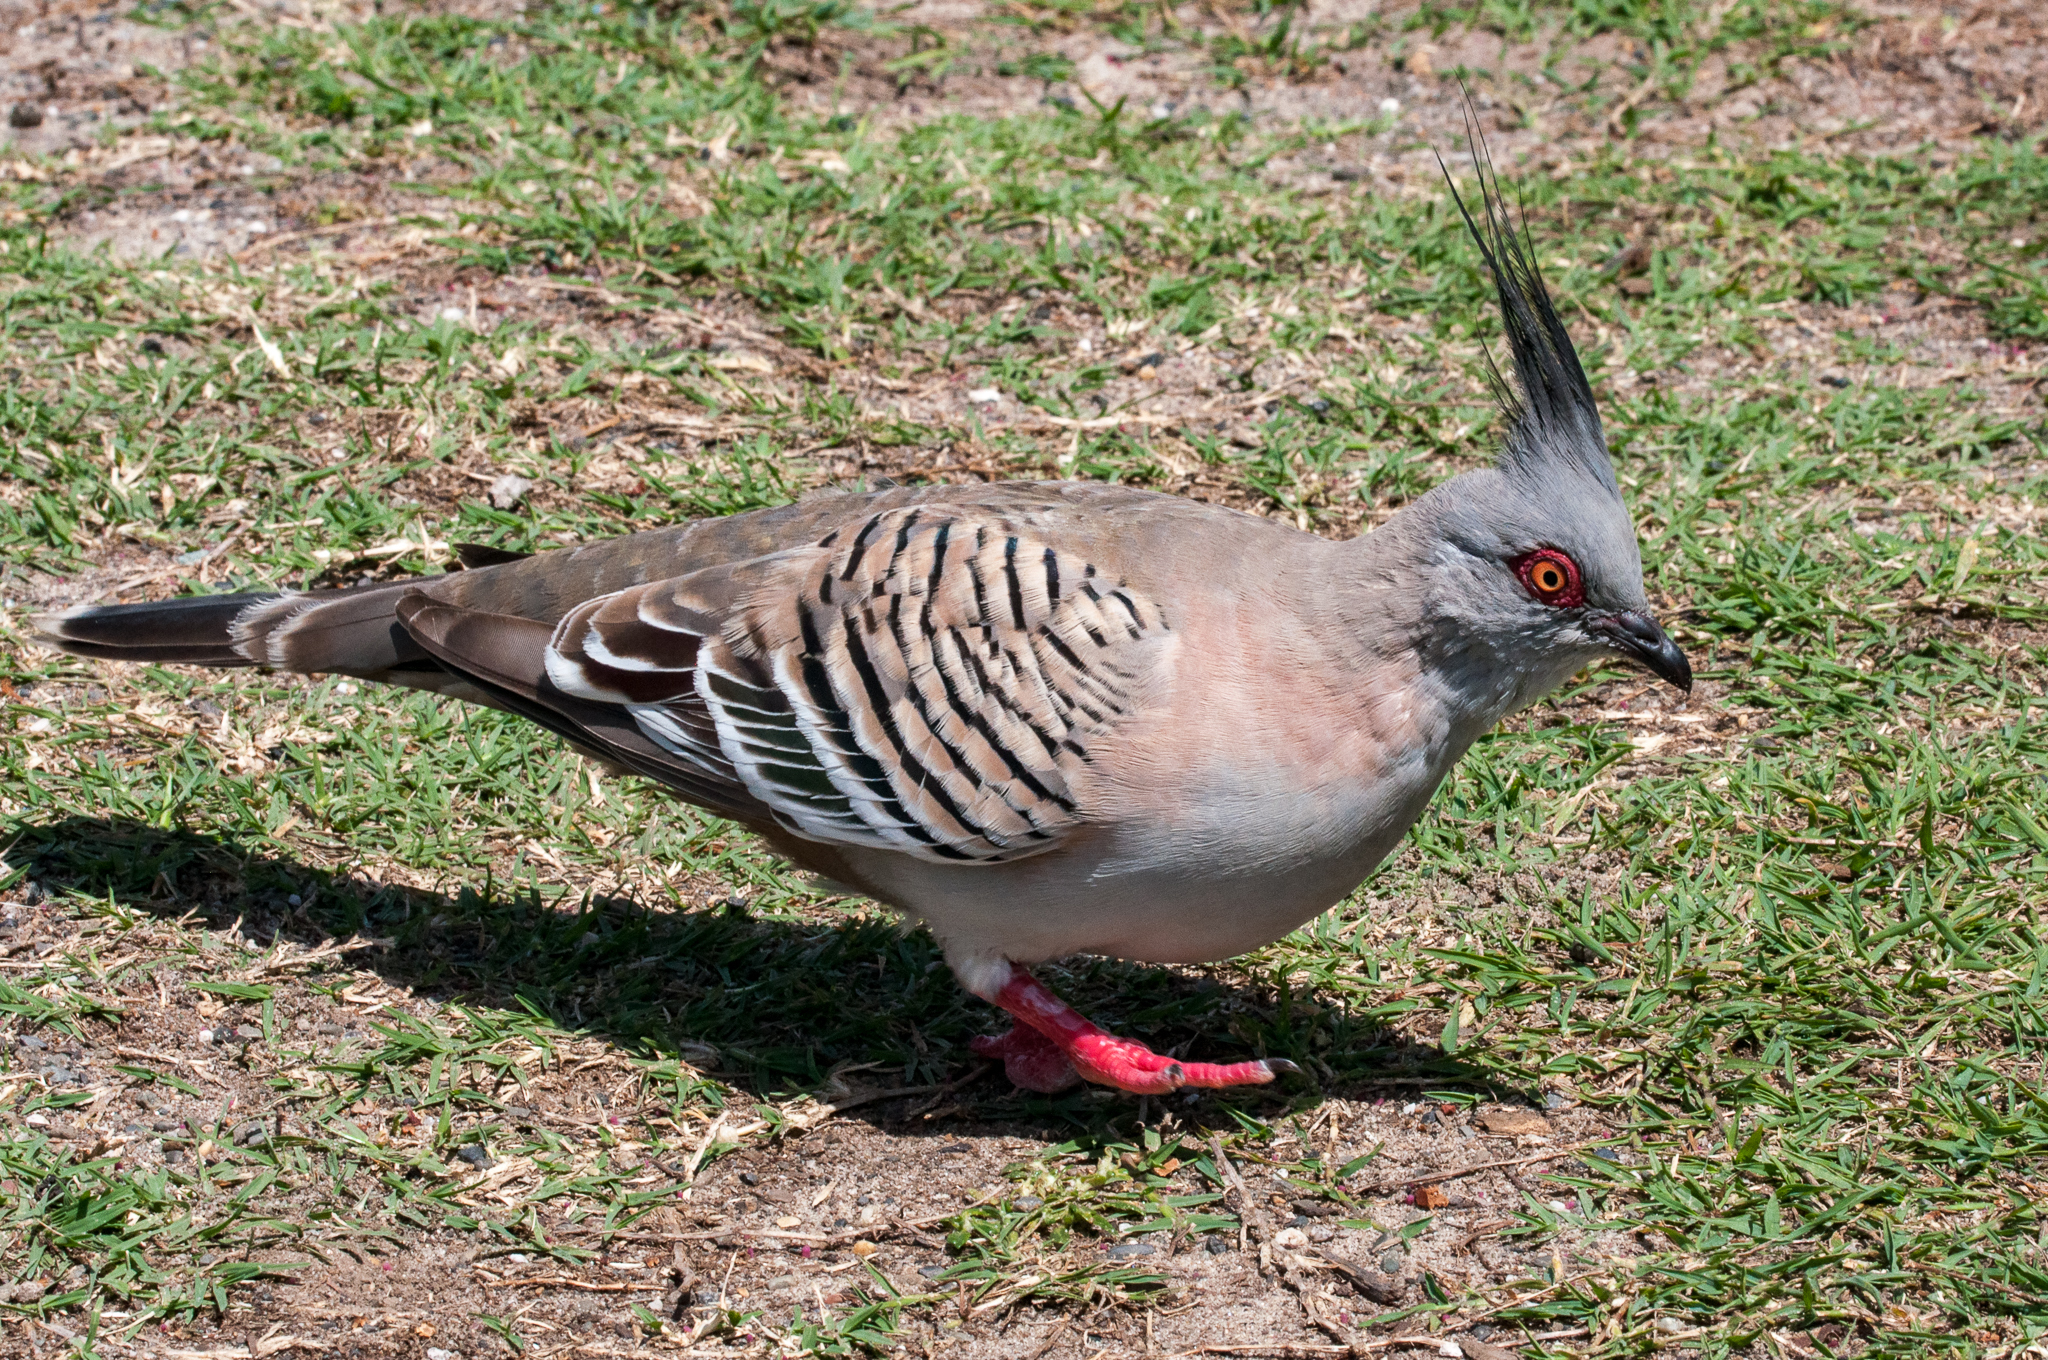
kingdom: Animalia
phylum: Chordata
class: Aves
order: Columbiformes
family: Columbidae
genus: Ocyphaps
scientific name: Ocyphaps lophotes
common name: Crested pigeon
